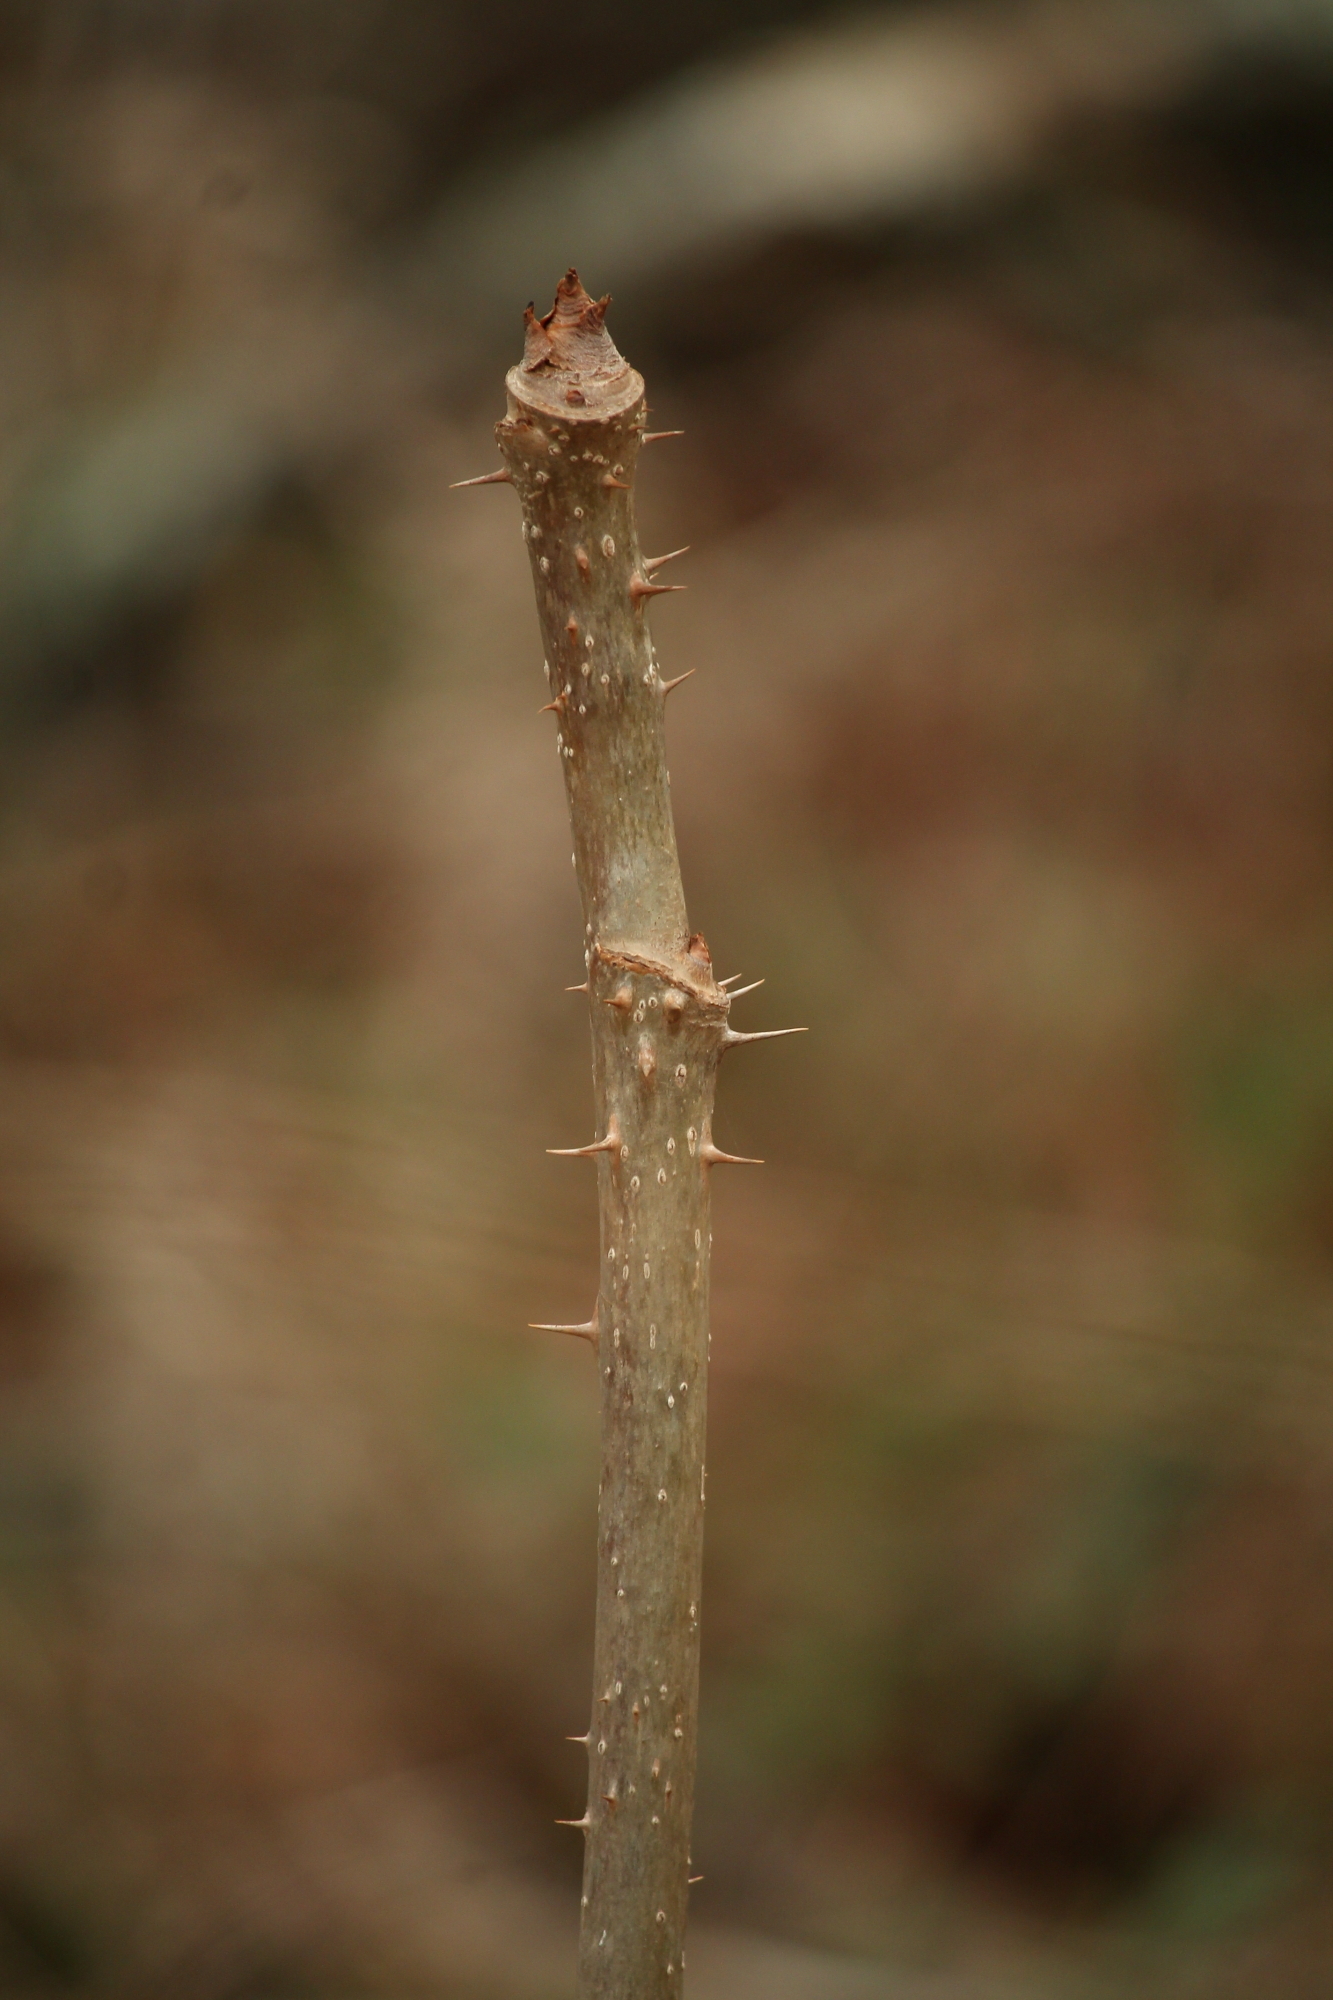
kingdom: Plantae
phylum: Tracheophyta
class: Magnoliopsida
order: Apiales
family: Araliaceae
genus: Aralia
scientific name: Aralia spinosa
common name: Hercules'-club
